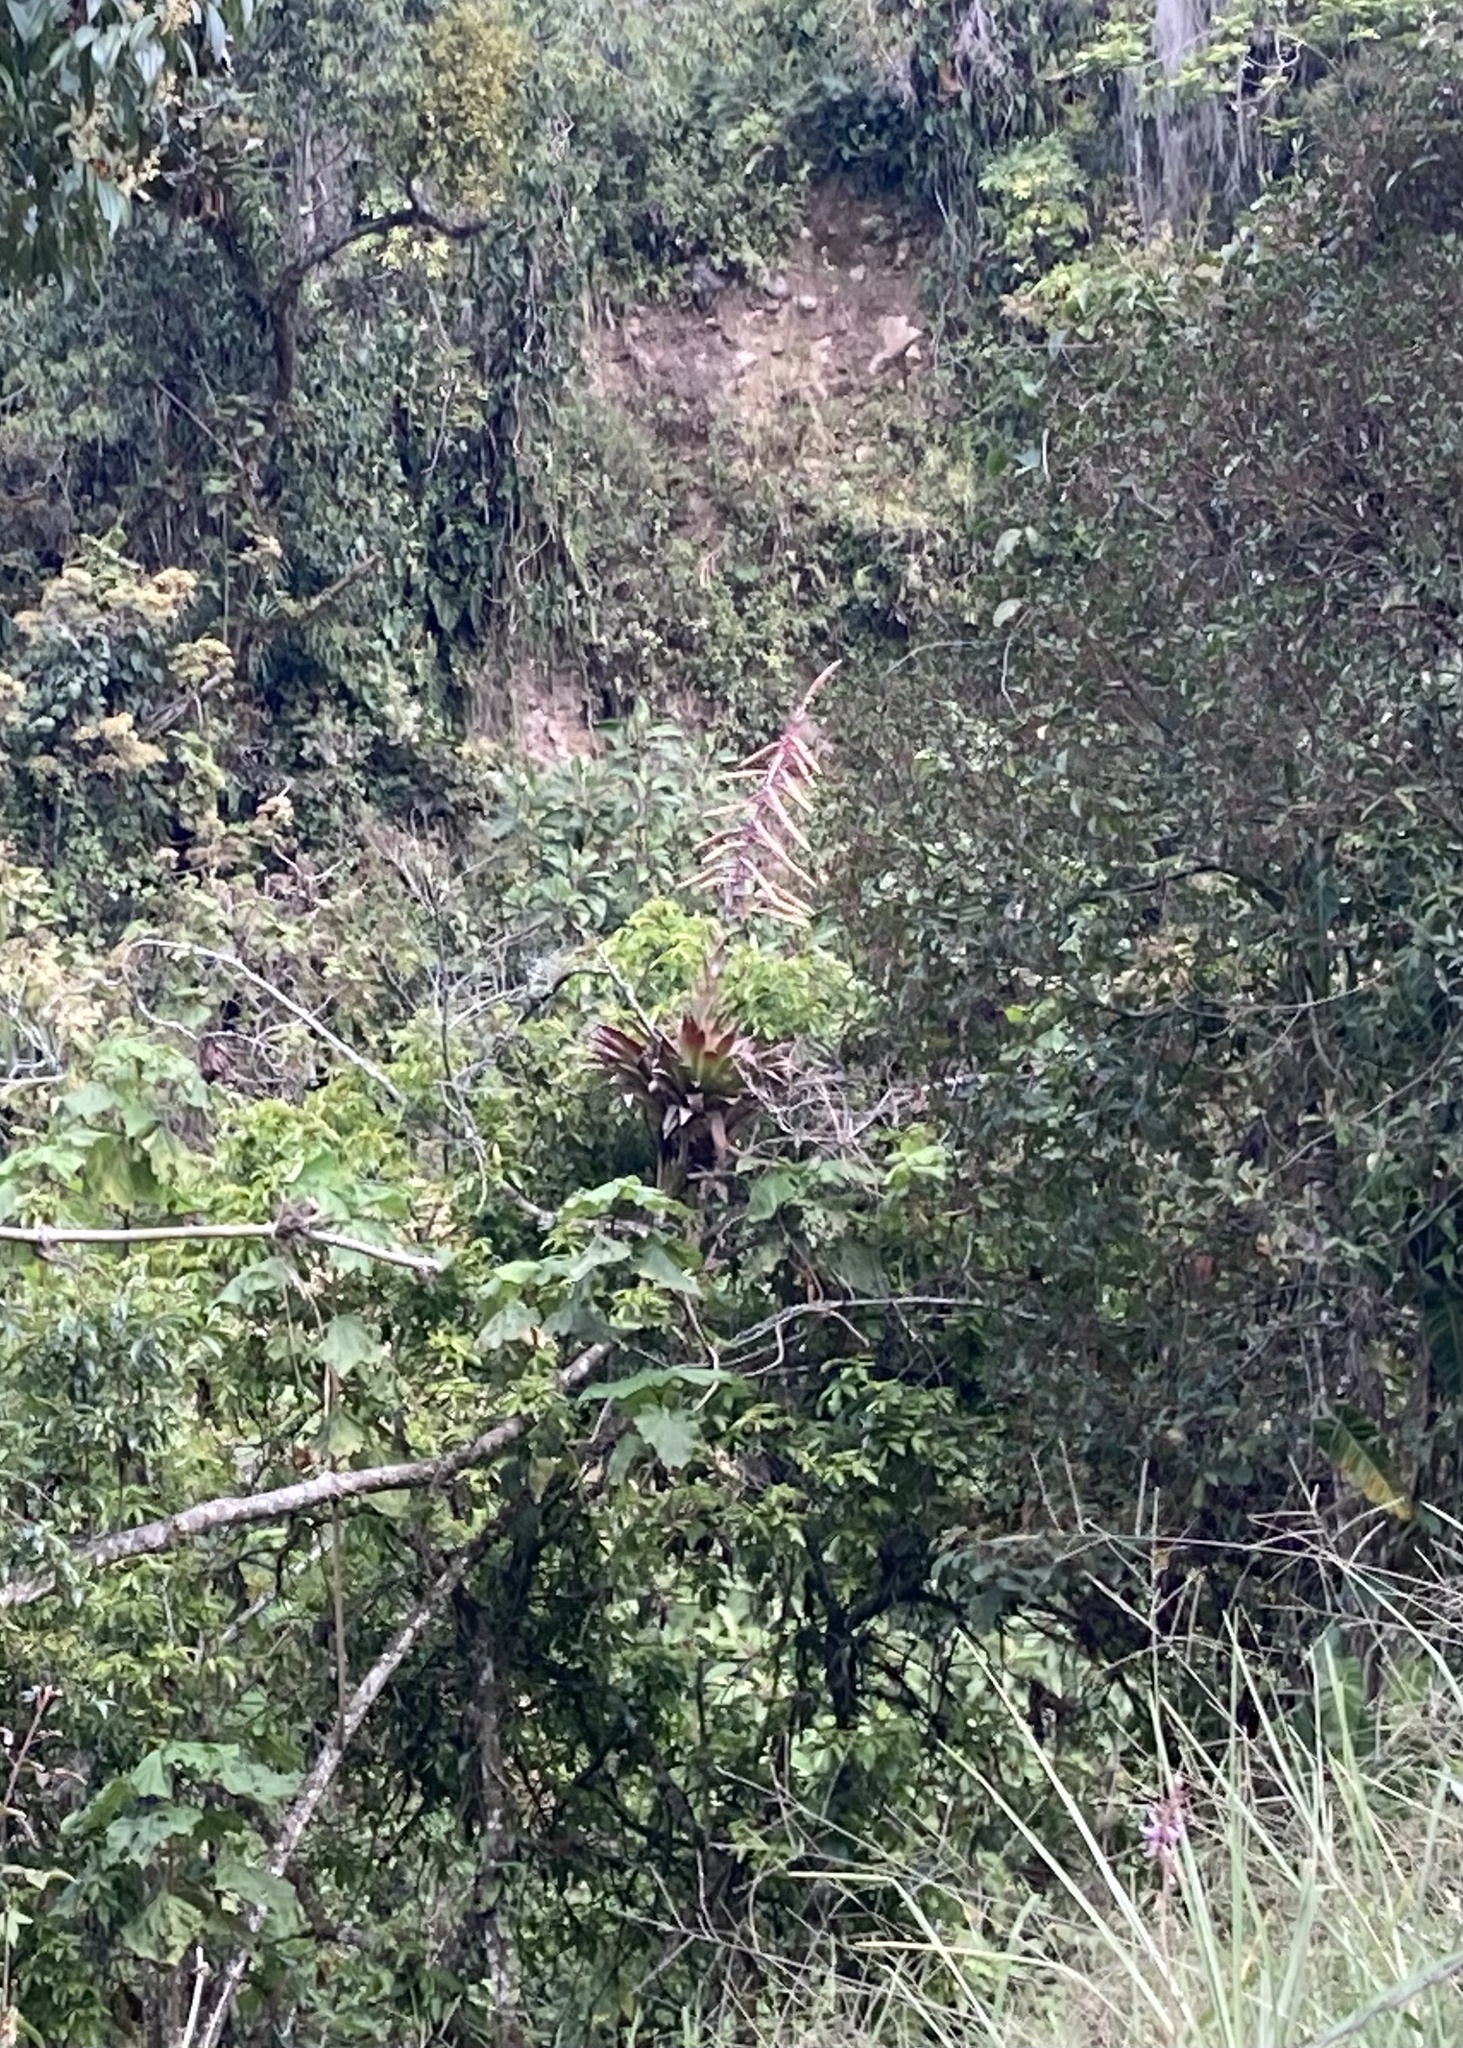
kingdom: Plantae
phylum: Tracheophyta
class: Liliopsida
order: Poales
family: Bromeliaceae
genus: Tillandsia
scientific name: Tillandsia fendleri
